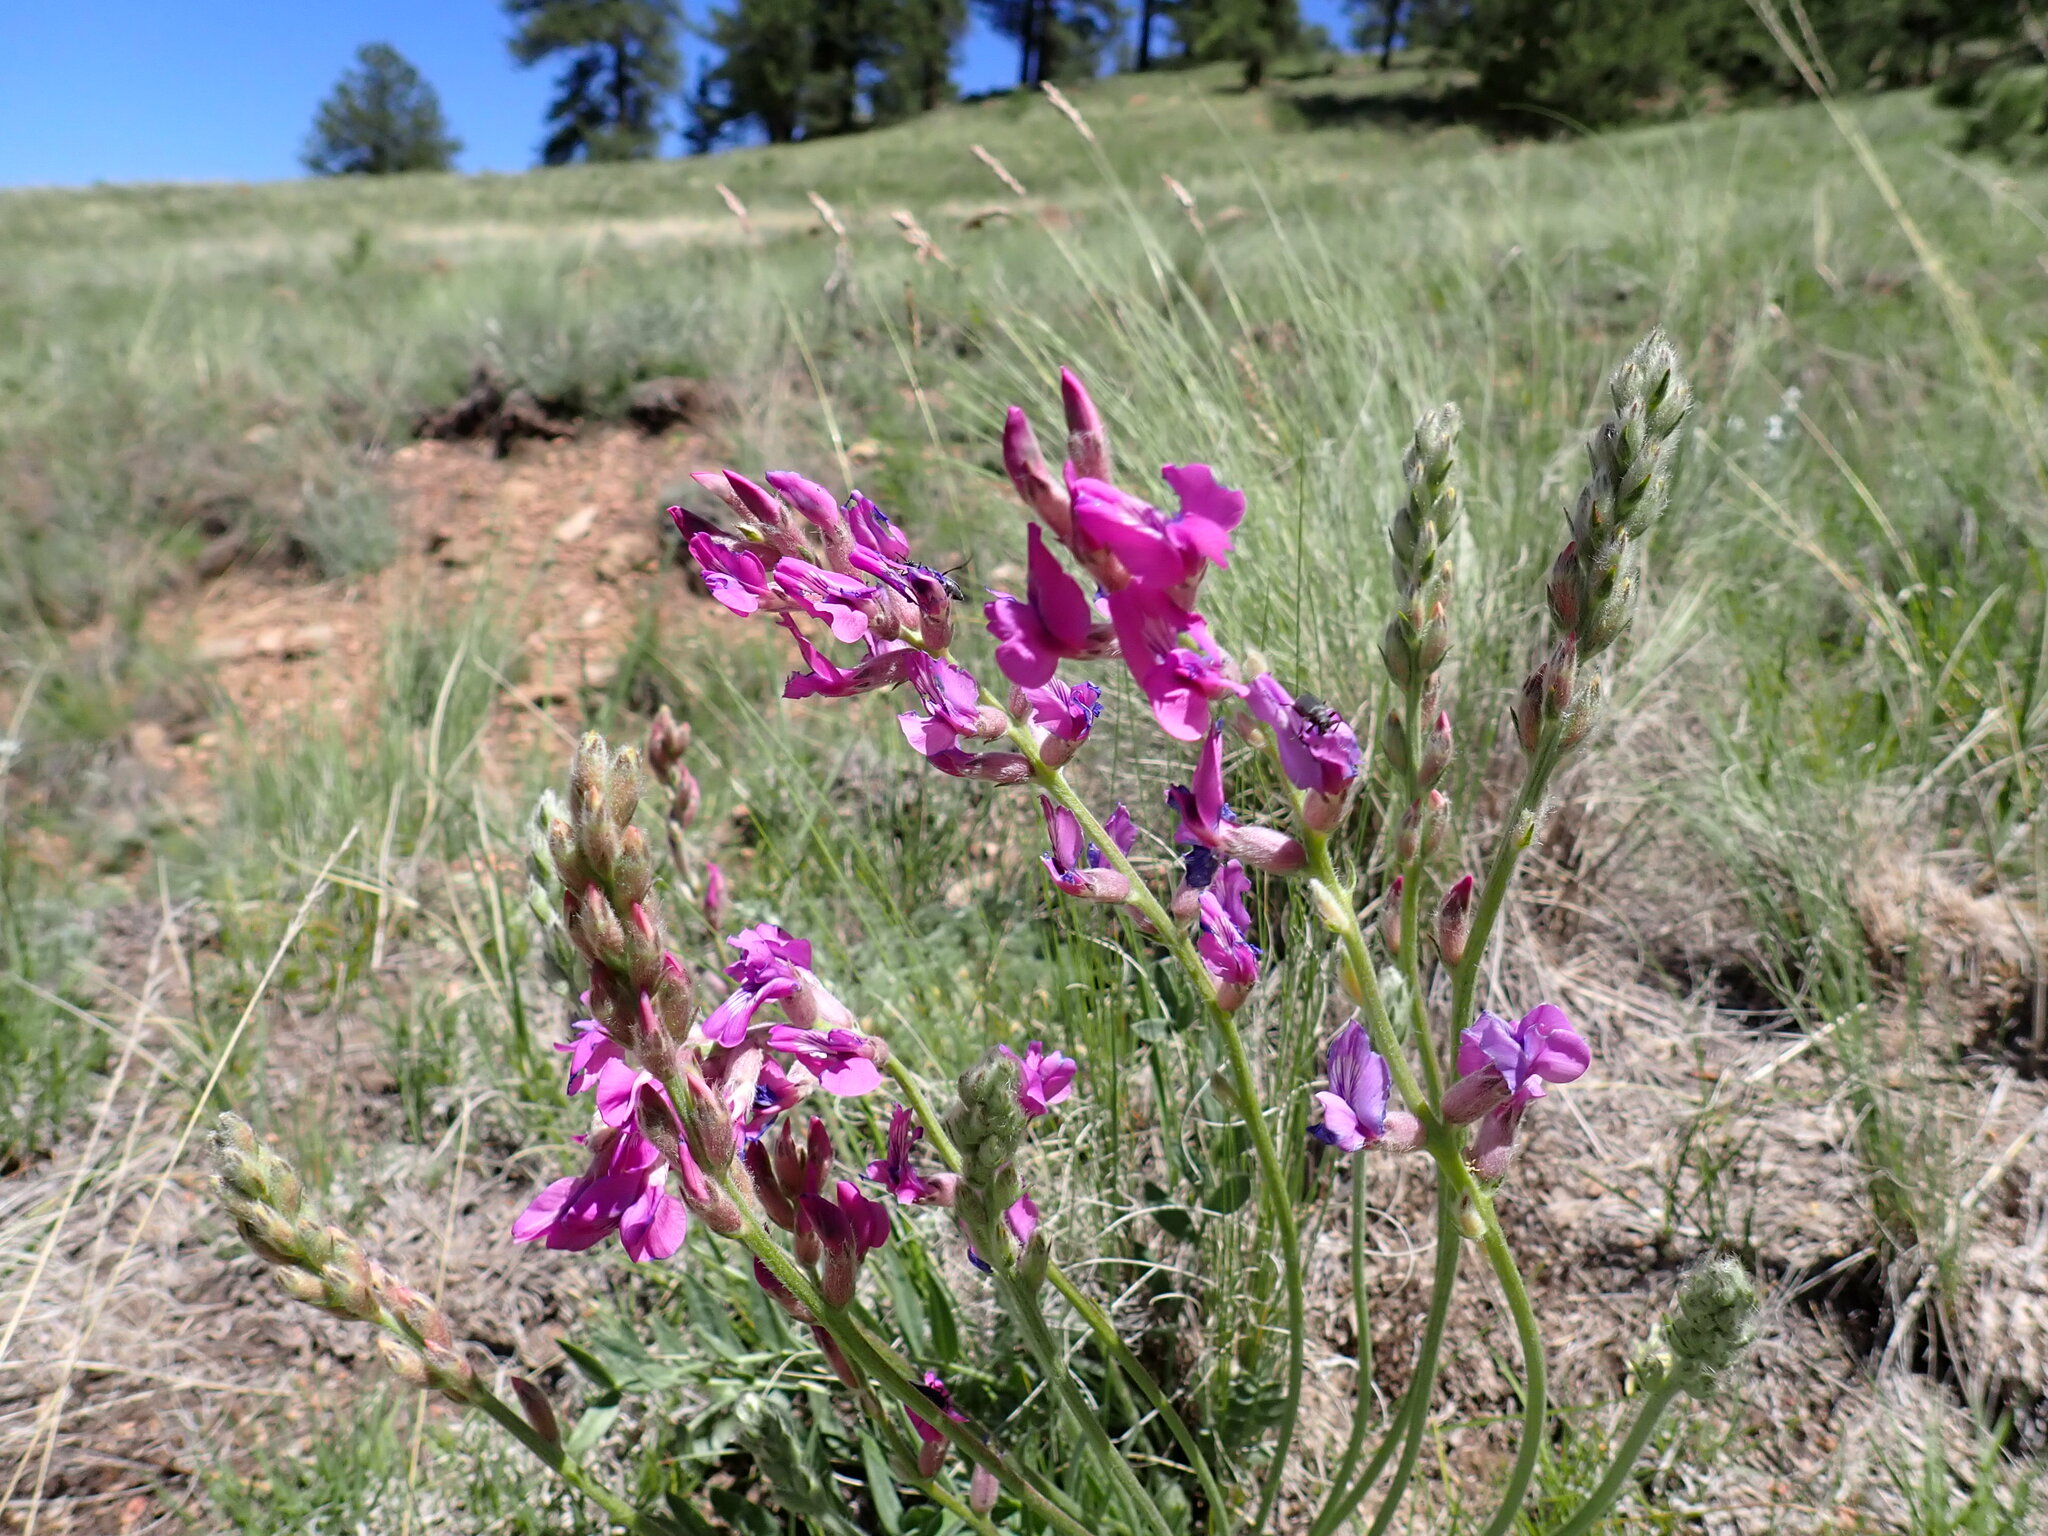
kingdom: Plantae
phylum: Tracheophyta
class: Magnoliopsida
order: Fabales
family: Fabaceae
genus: Oxytropis
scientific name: Oxytropis lambertii
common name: Purple locoweed
